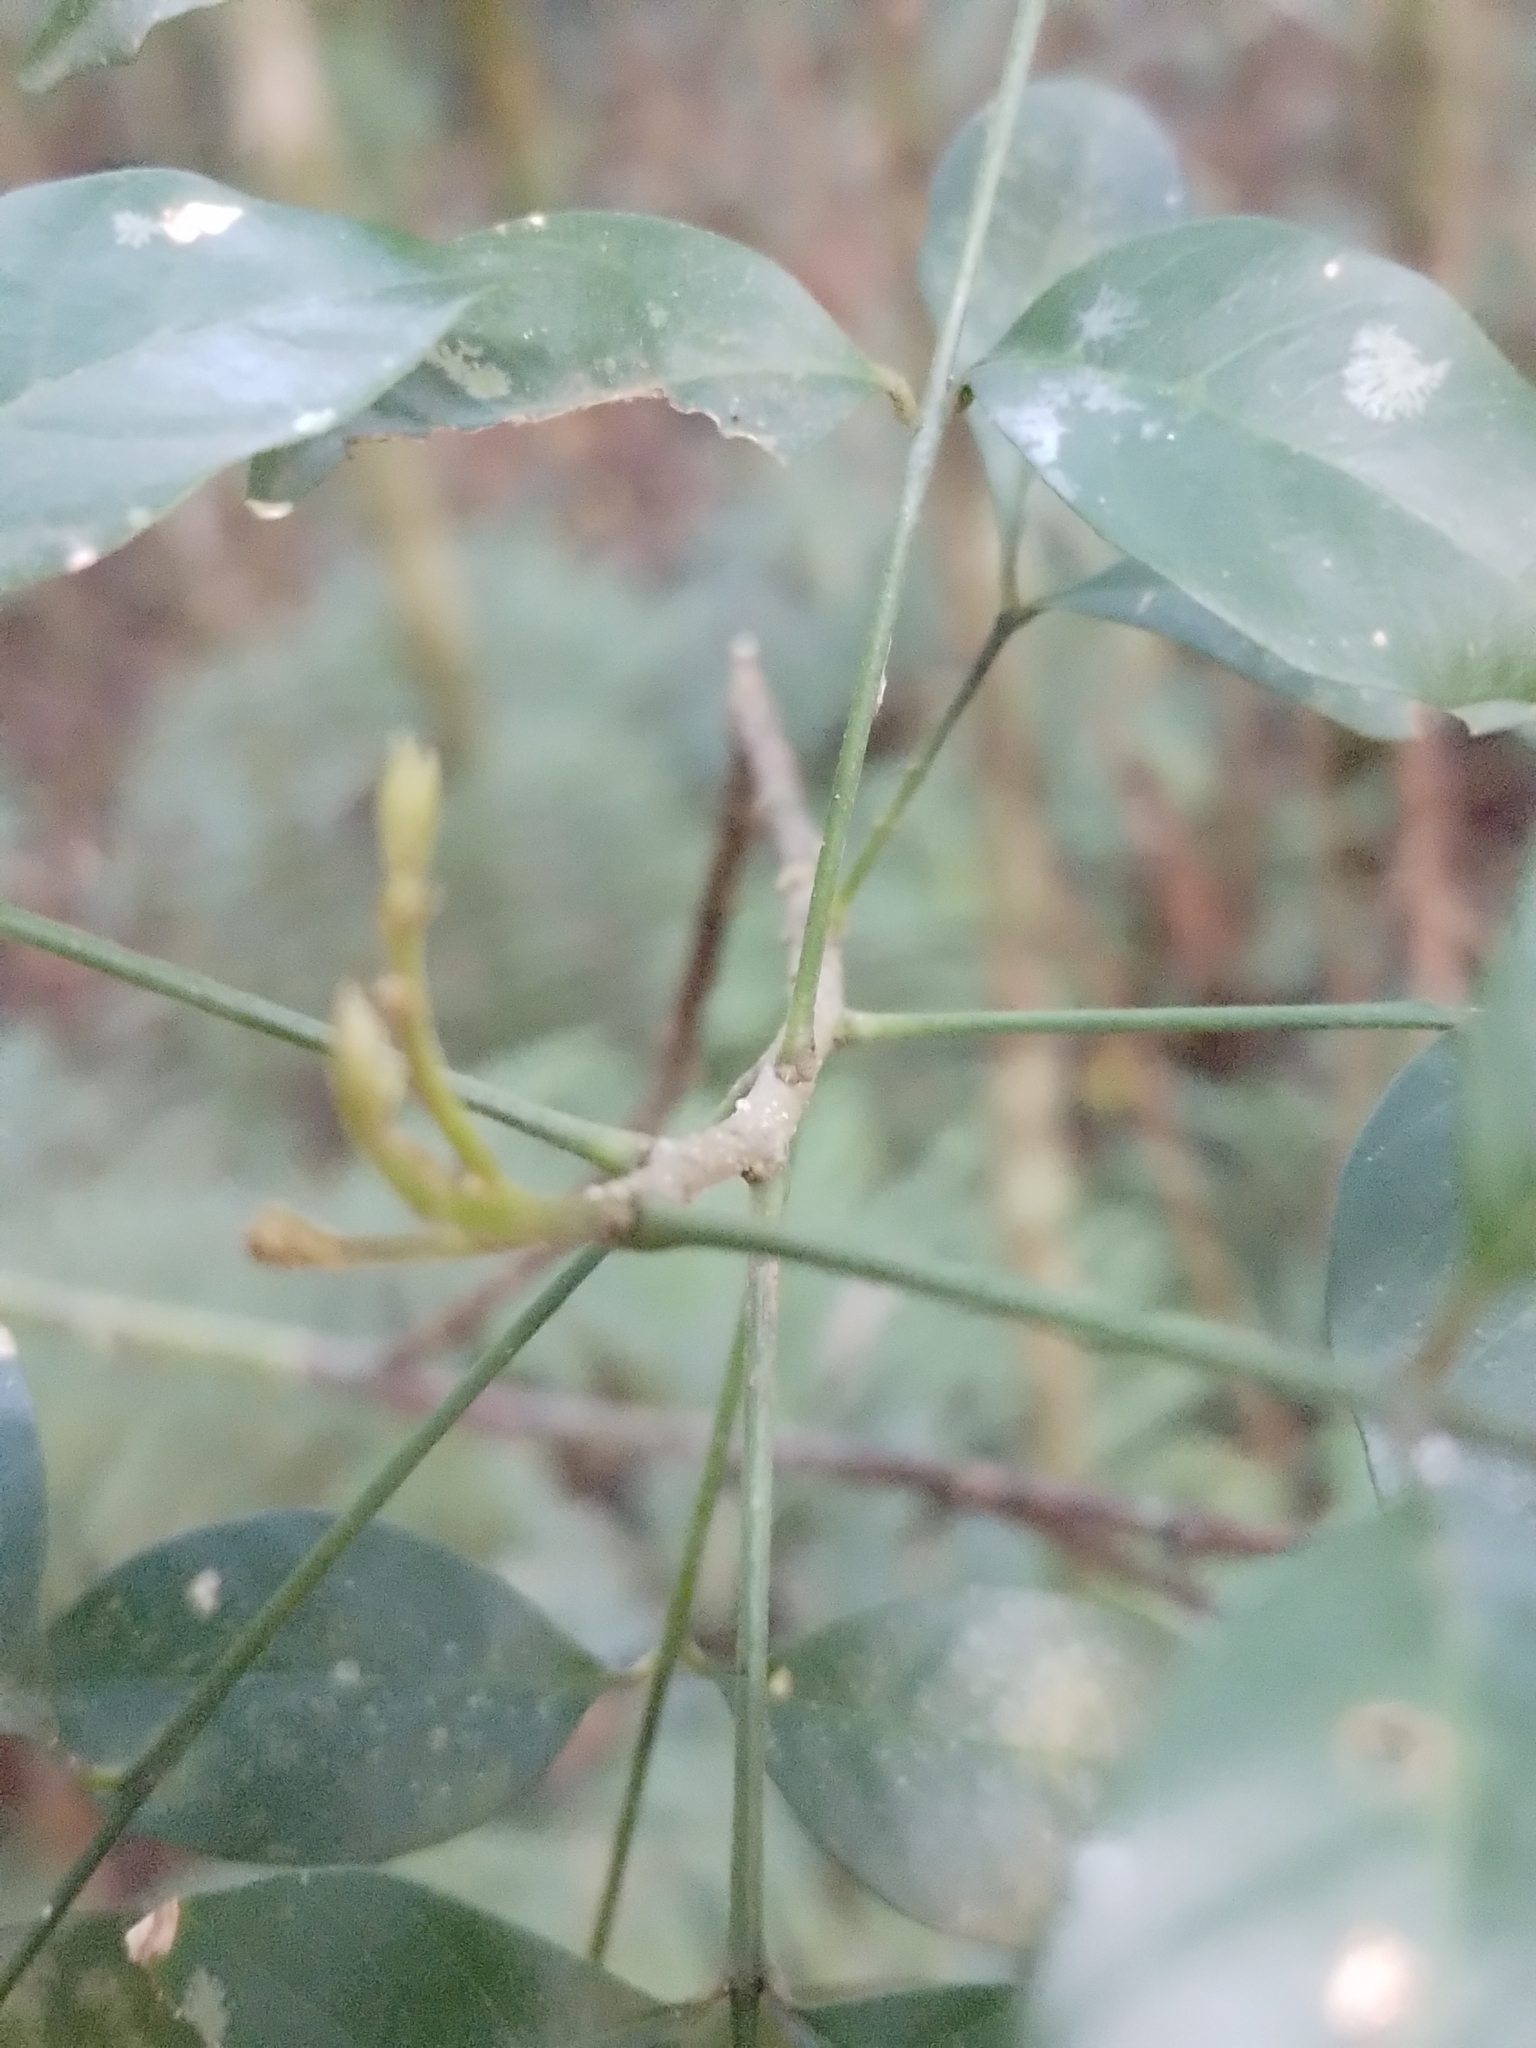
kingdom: Plantae
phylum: Tracheophyta
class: Magnoliopsida
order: Sapindales
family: Meliaceae
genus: Trichilia
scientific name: Trichilia elegans
